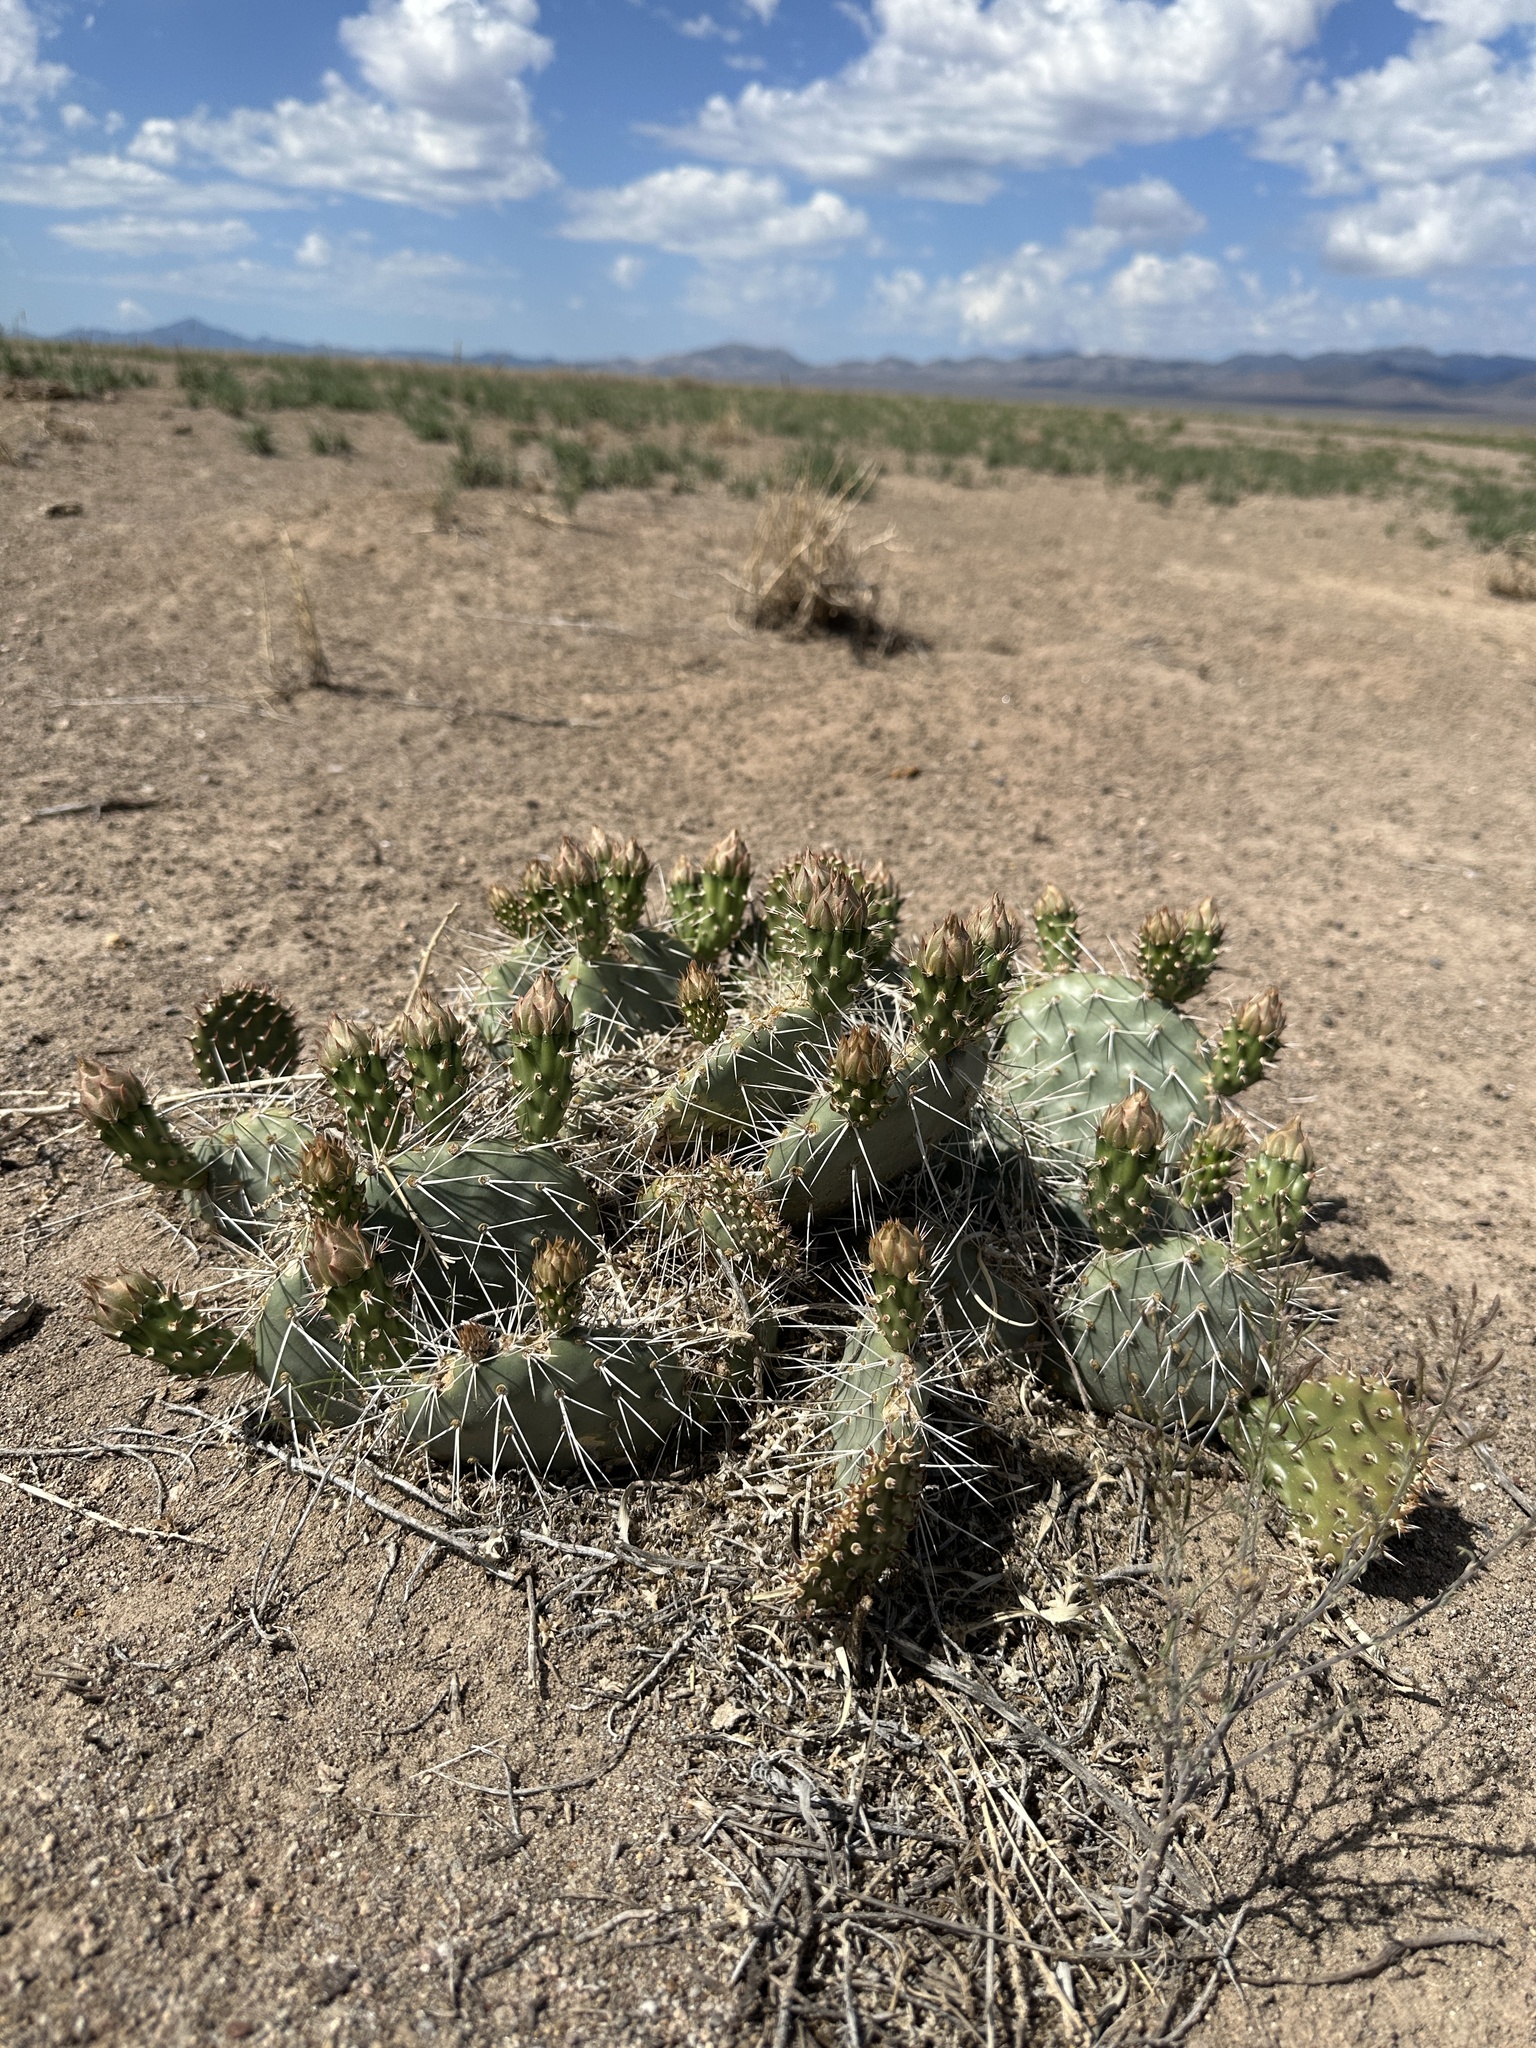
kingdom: Plantae
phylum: Tracheophyta
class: Magnoliopsida
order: Caryophyllales
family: Cactaceae
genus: Opuntia
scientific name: Opuntia polyacantha
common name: Plains prickly-pear
